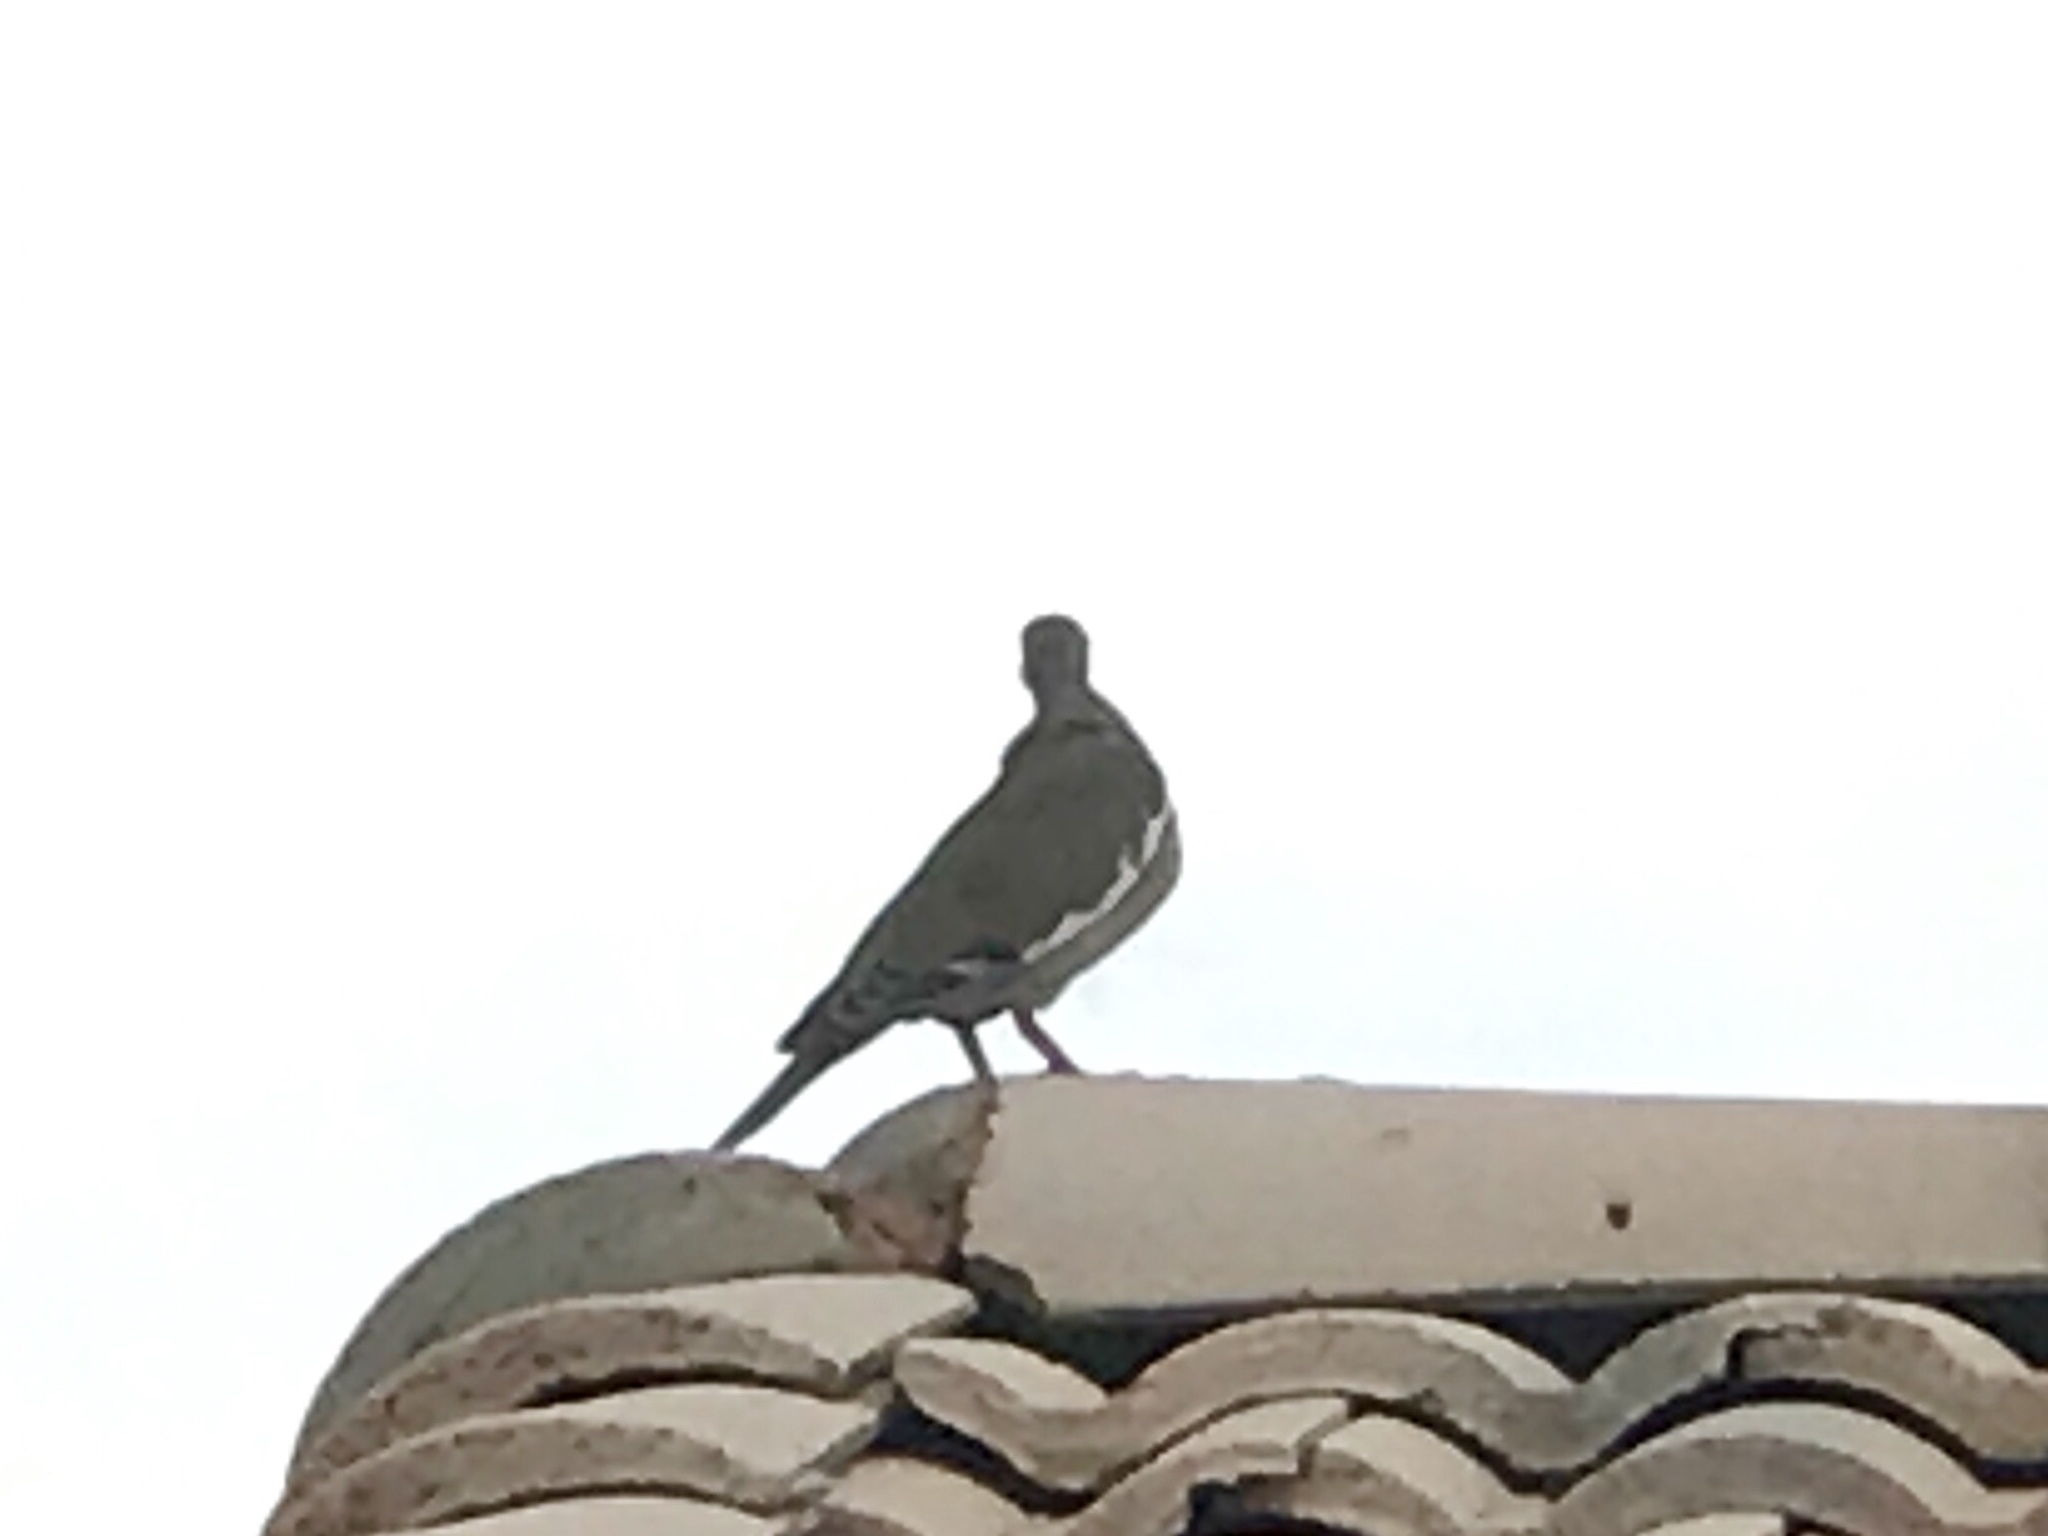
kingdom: Animalia
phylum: Chordata
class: Aves
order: Columbiformes
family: Columbidae
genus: Zenaida
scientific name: Zenaida asiatica
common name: White-winged dove
